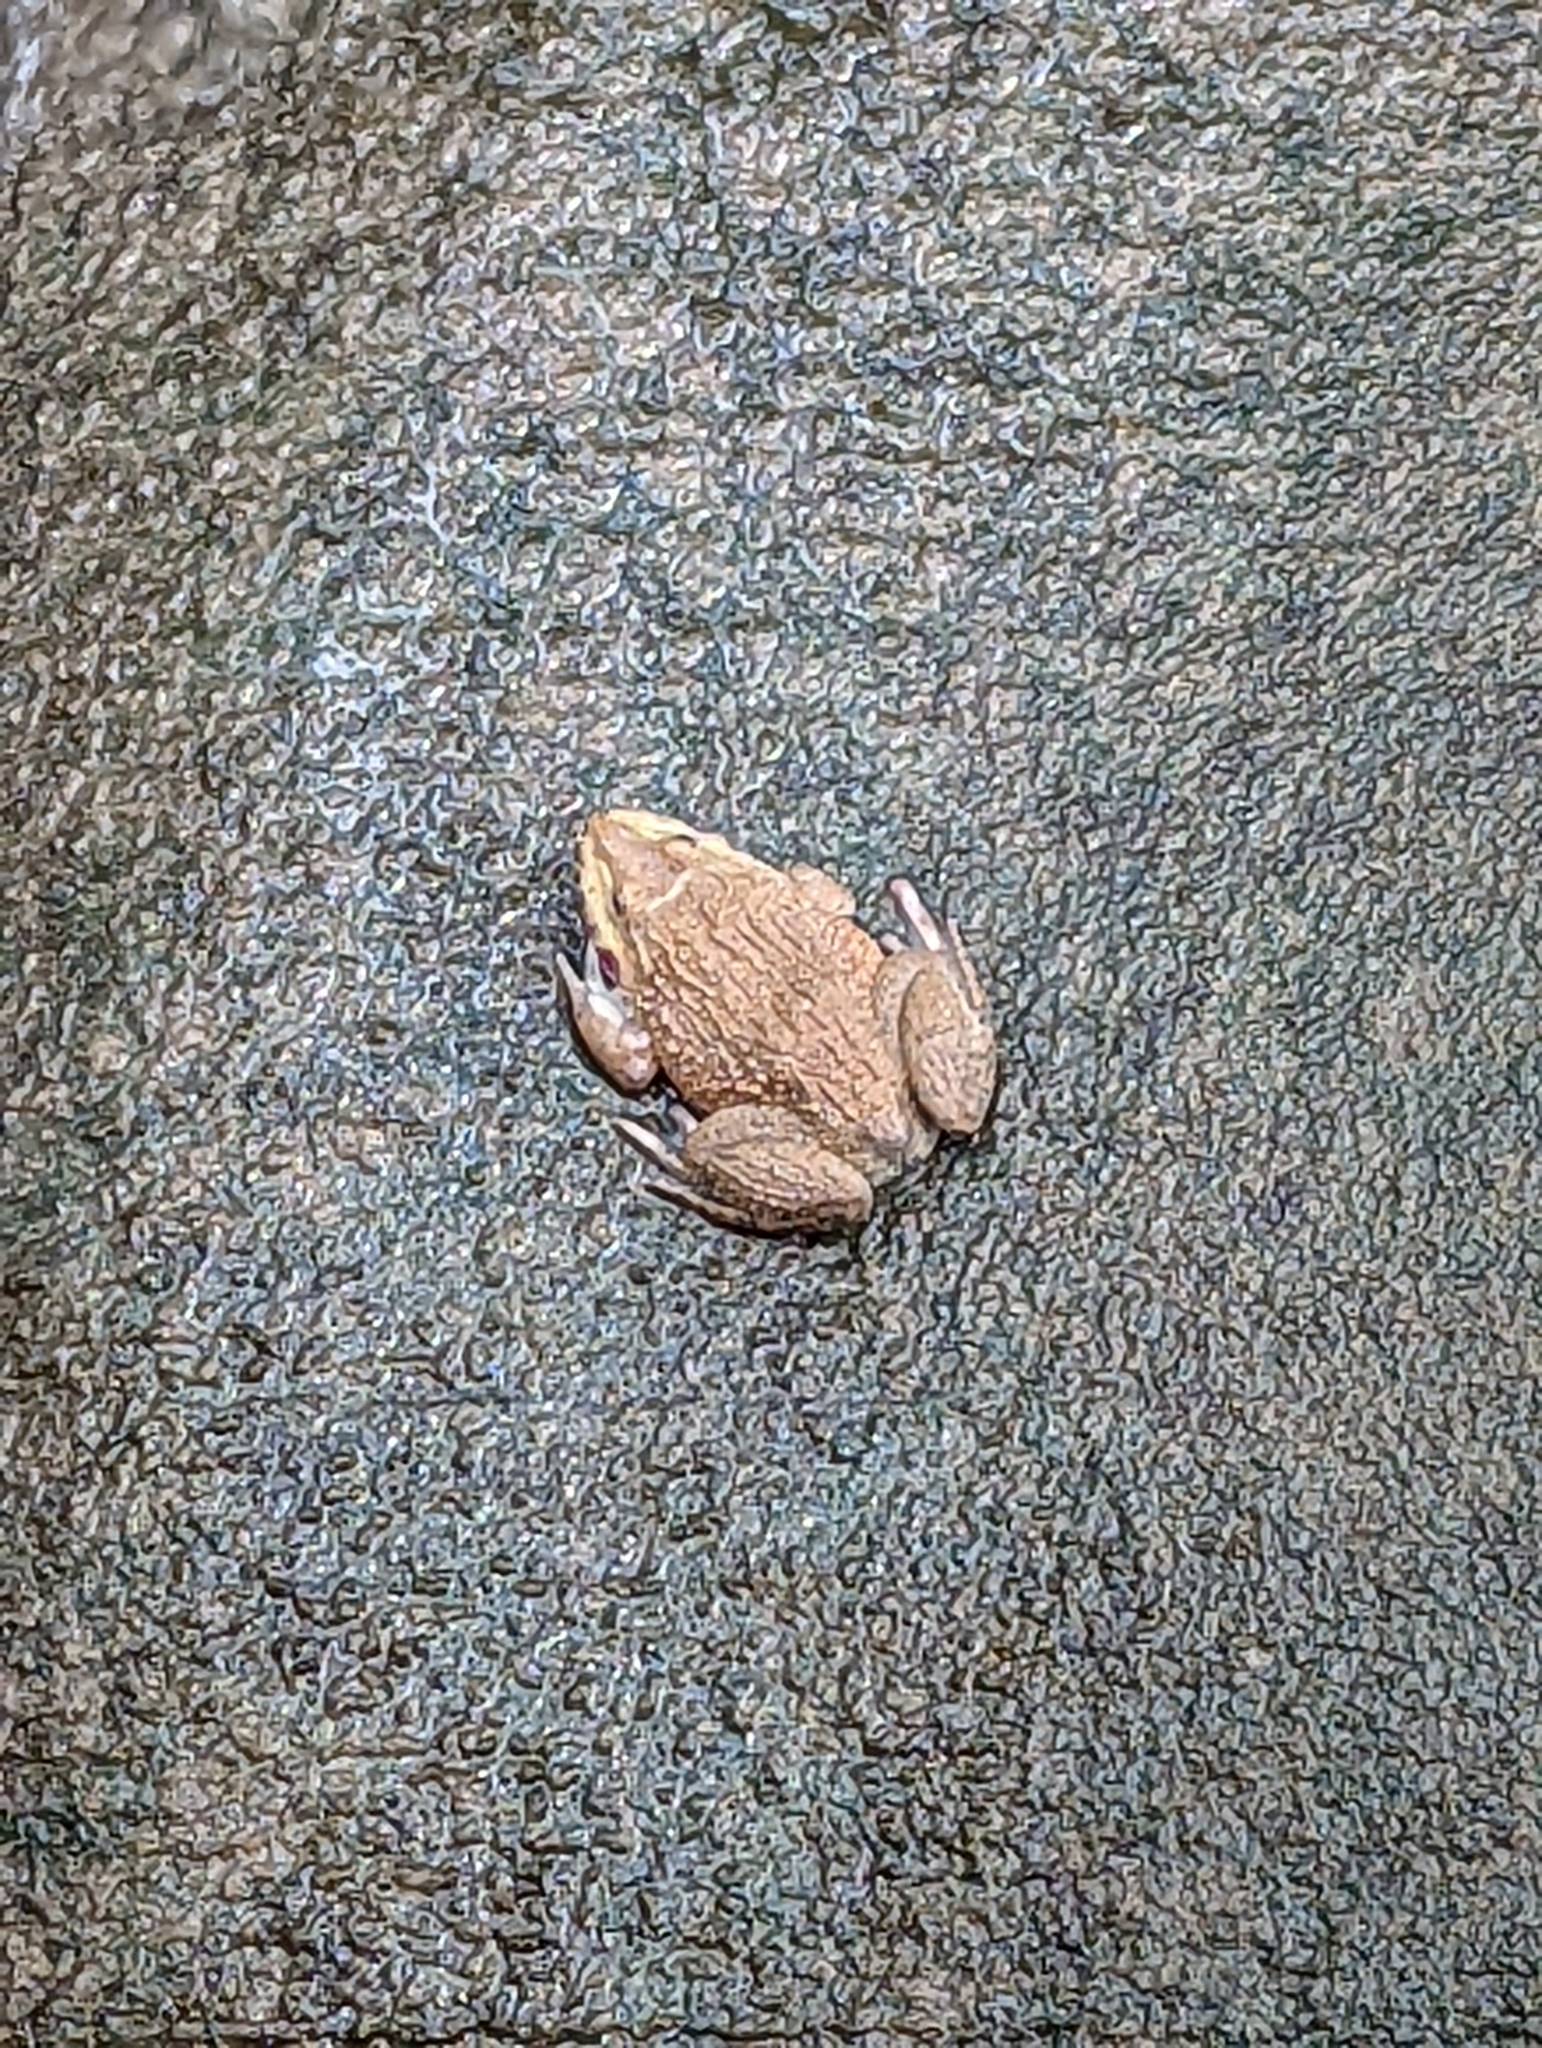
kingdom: Animalia
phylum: Chordata
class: Amphibia
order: Anura
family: Dicroglossidae
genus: Hoplobatrachus
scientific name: Hoplobatrachus rugulosus
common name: Chinese edible frog
